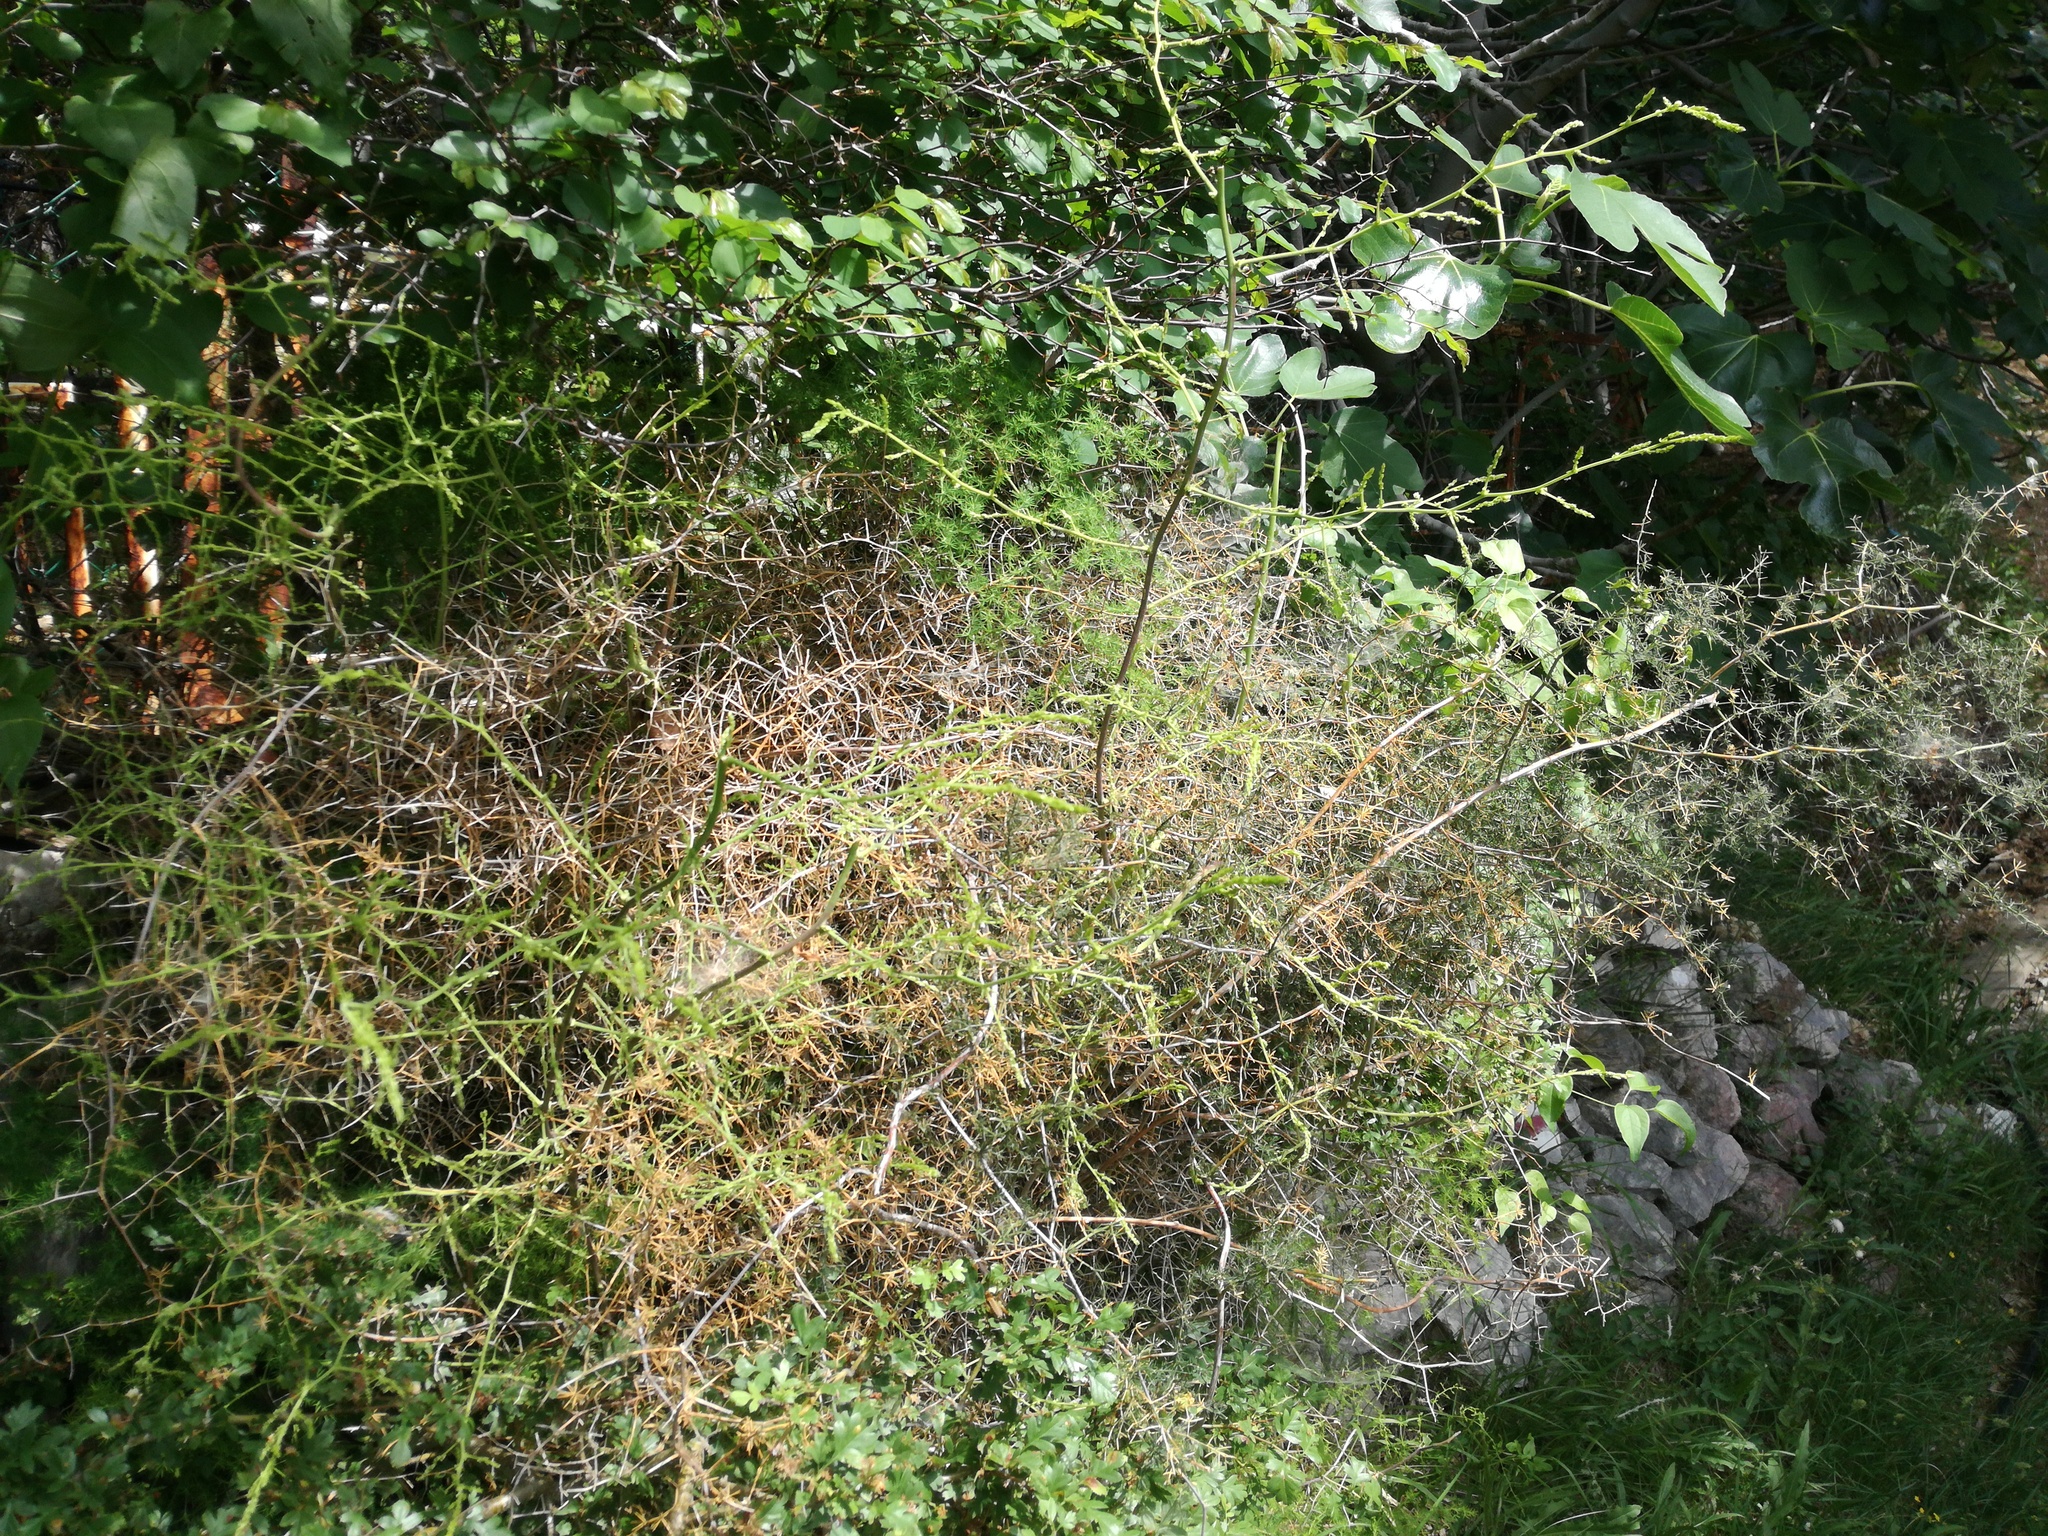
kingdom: Plantae
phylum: Tracheophyta
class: Liliopsida
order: Asparagales
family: Asparagaceae
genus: Asparagus
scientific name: Asparagus acutifolius
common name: Wild asparagus
